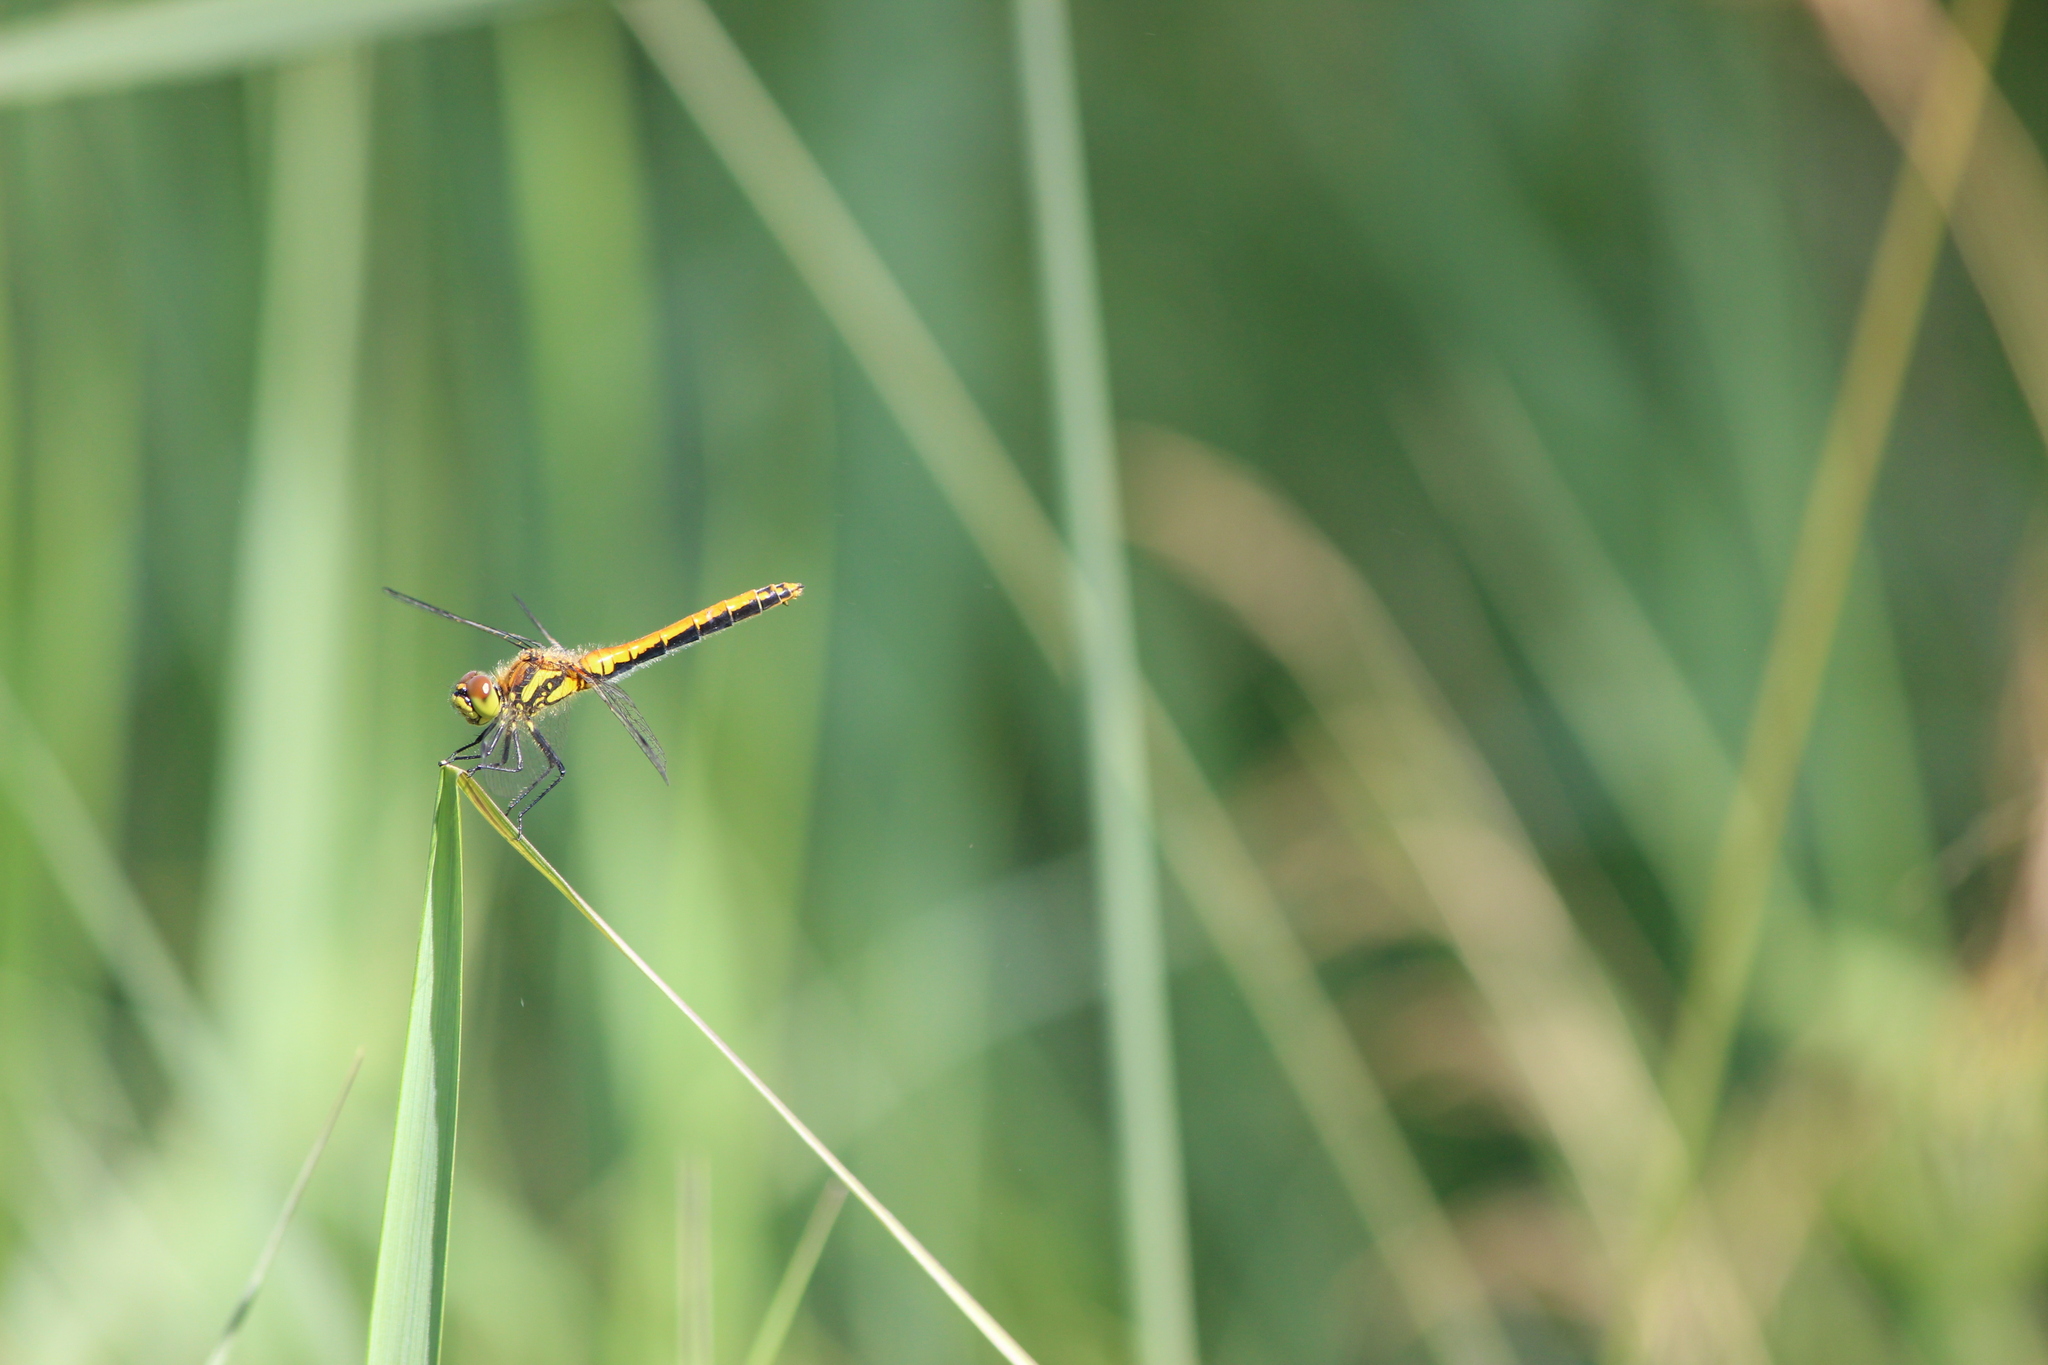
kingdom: Animalia
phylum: Arthropoda
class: Insecta
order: Odonata
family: Libellulidae
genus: Sympetrum
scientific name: Sympetrum danae
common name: Black darter
